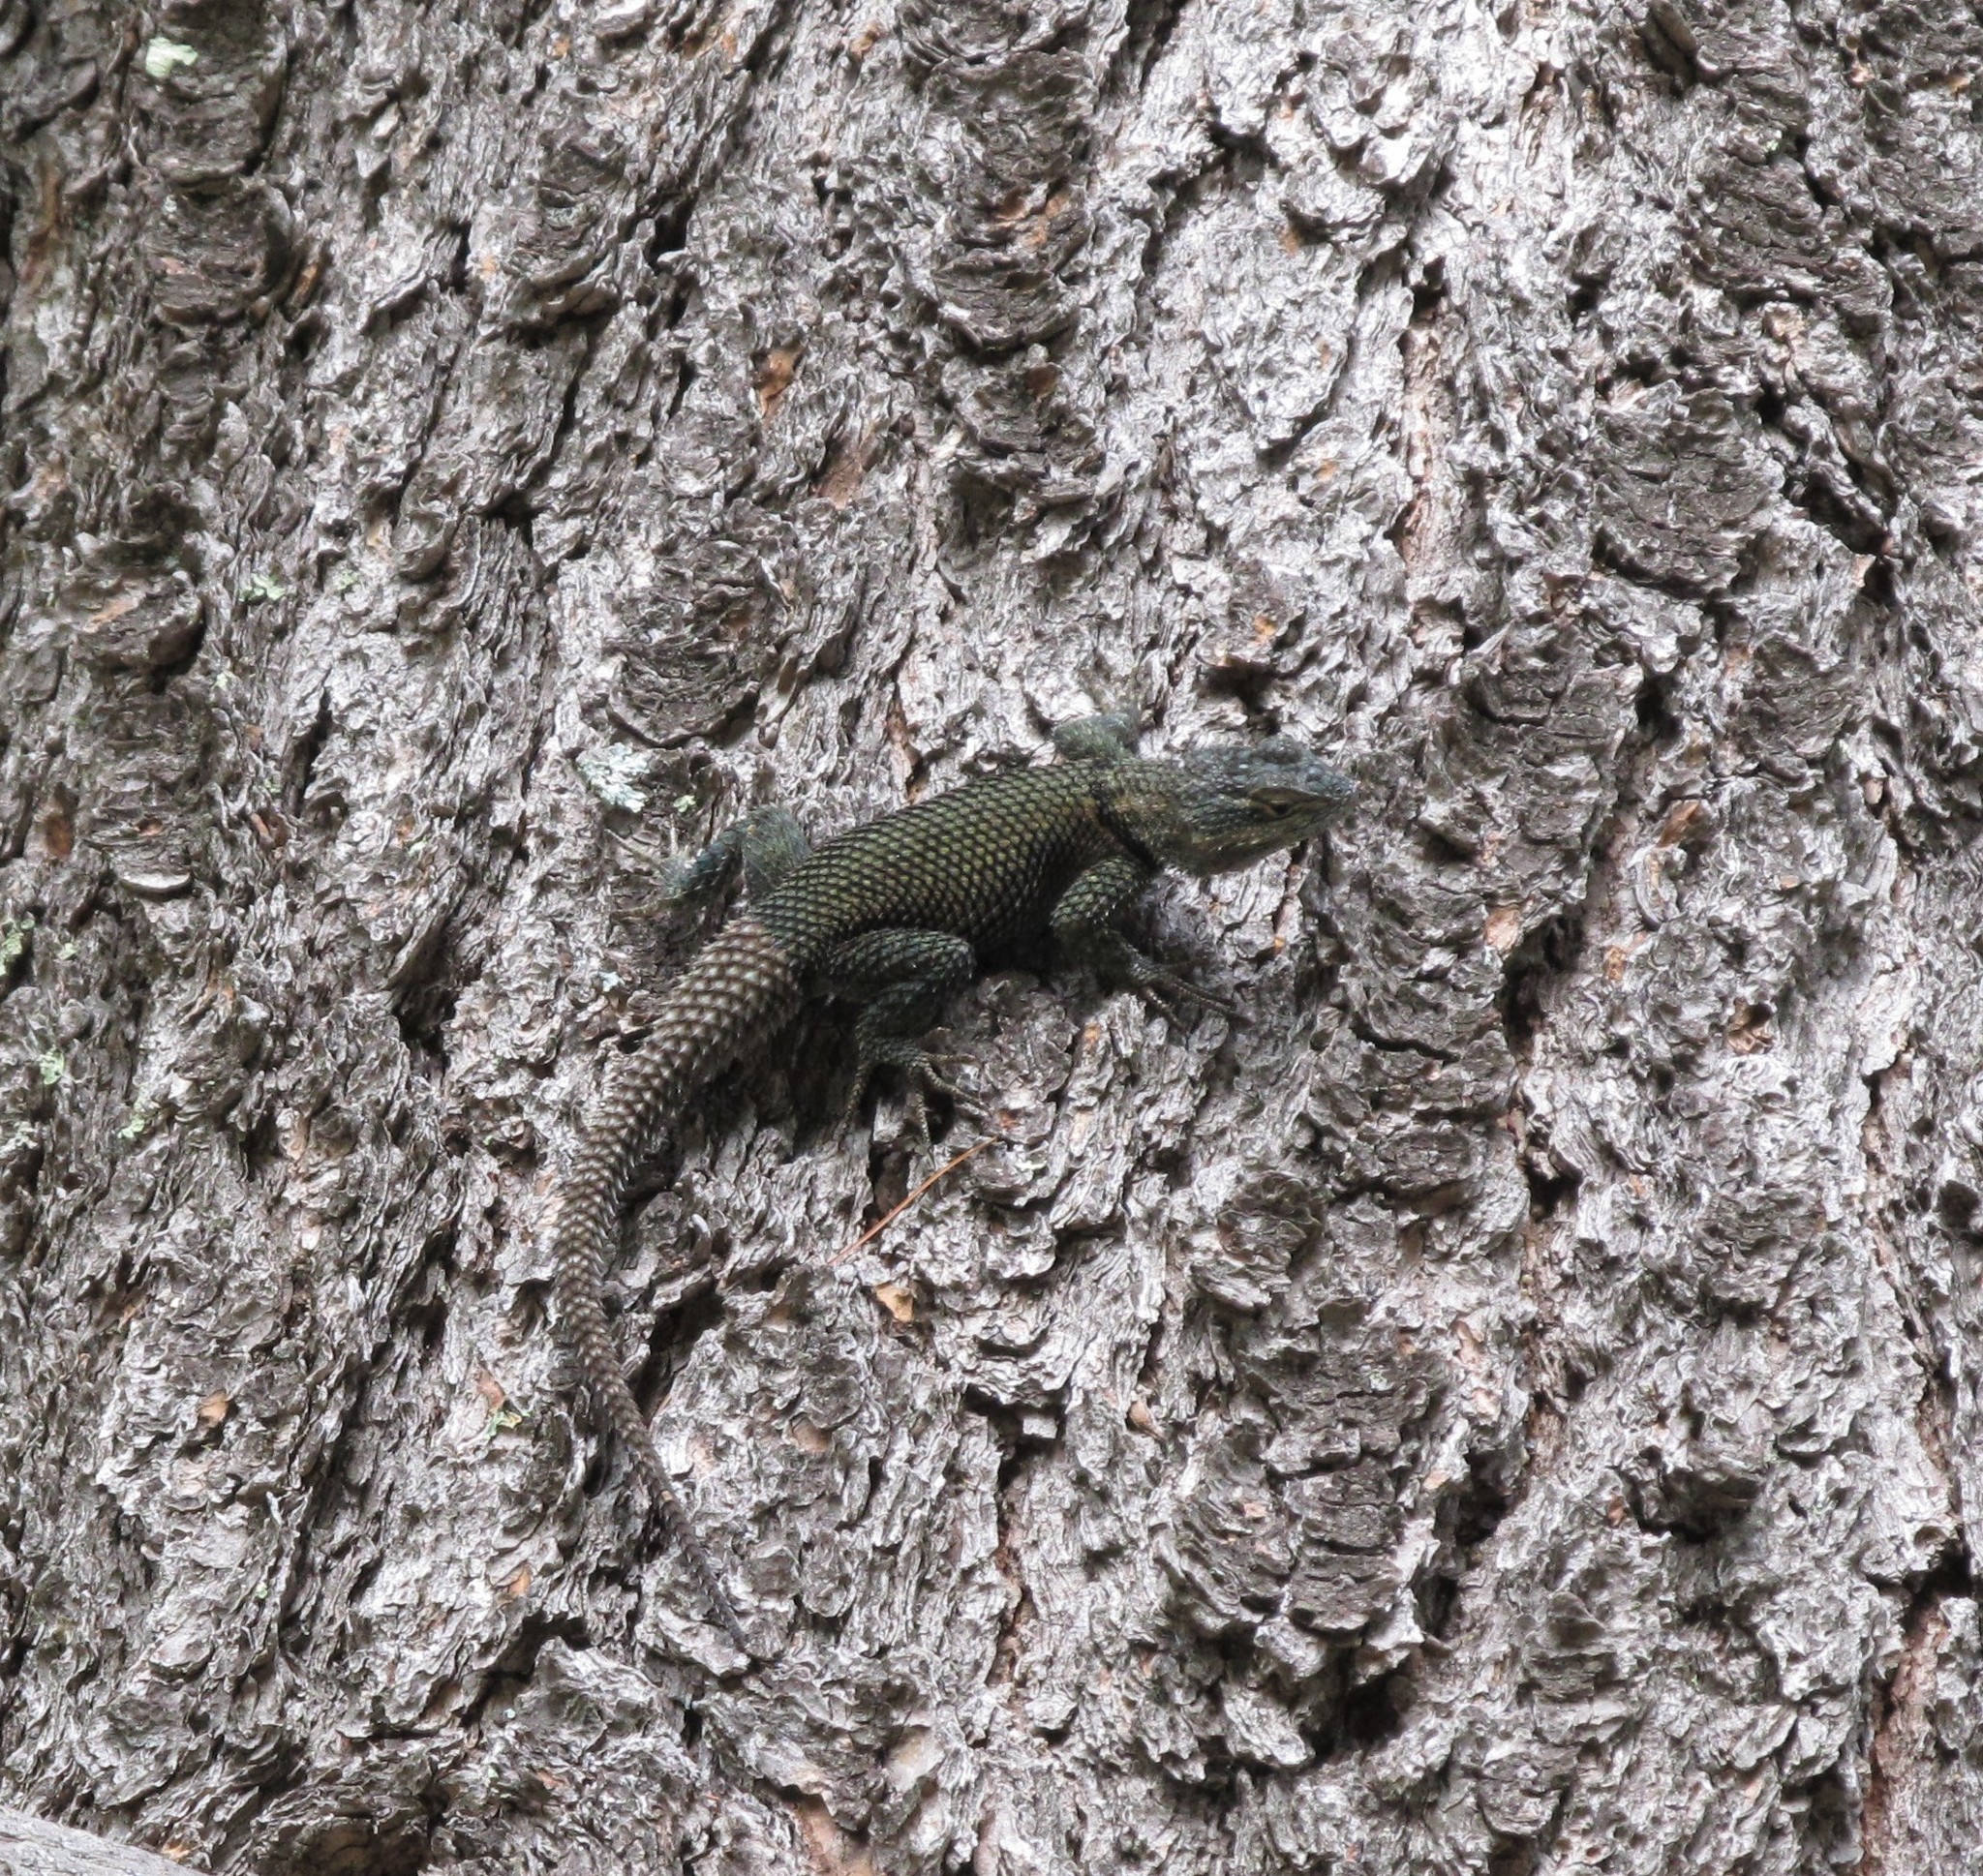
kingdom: Animalia
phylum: Chordata
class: Squamata
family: Phrynosomatidae
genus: Sceloporus
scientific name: Sceloporus jarrovii
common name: Yarrow's spiny lizard
